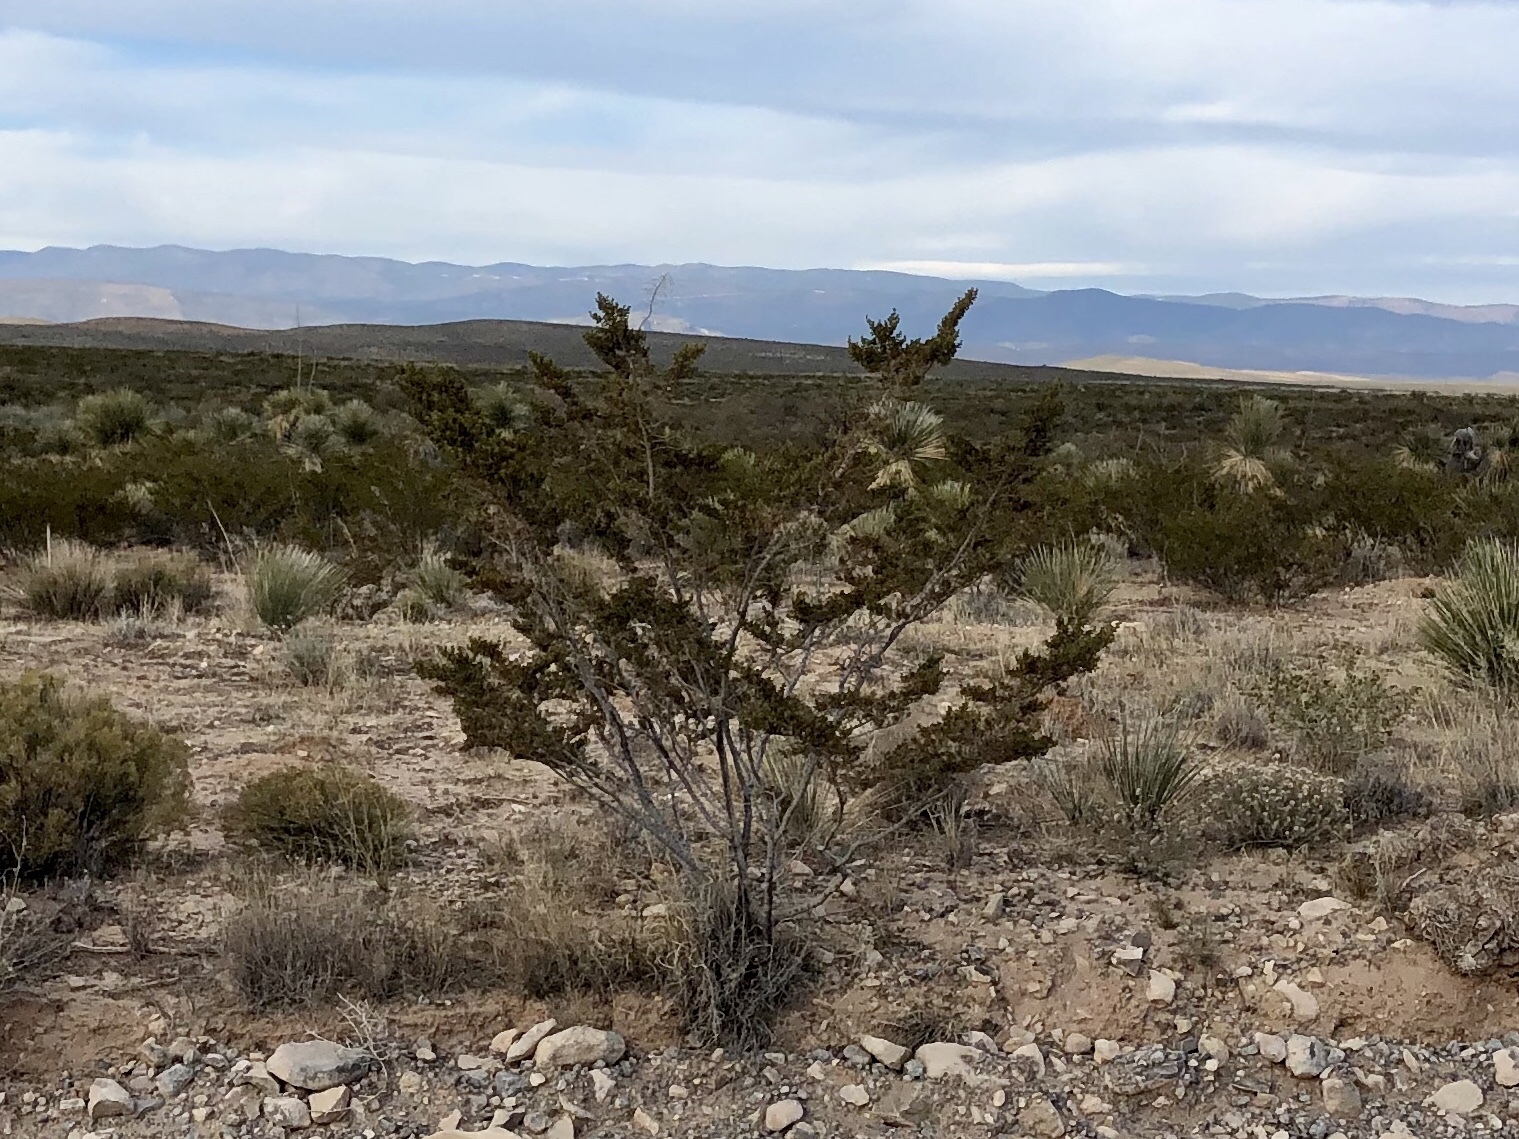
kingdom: Plantae
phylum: Tracheophyta
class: Magnoliopsida
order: Zygophyllales
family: Zygophyllaceae
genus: Larrea
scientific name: Larrea tridentata
